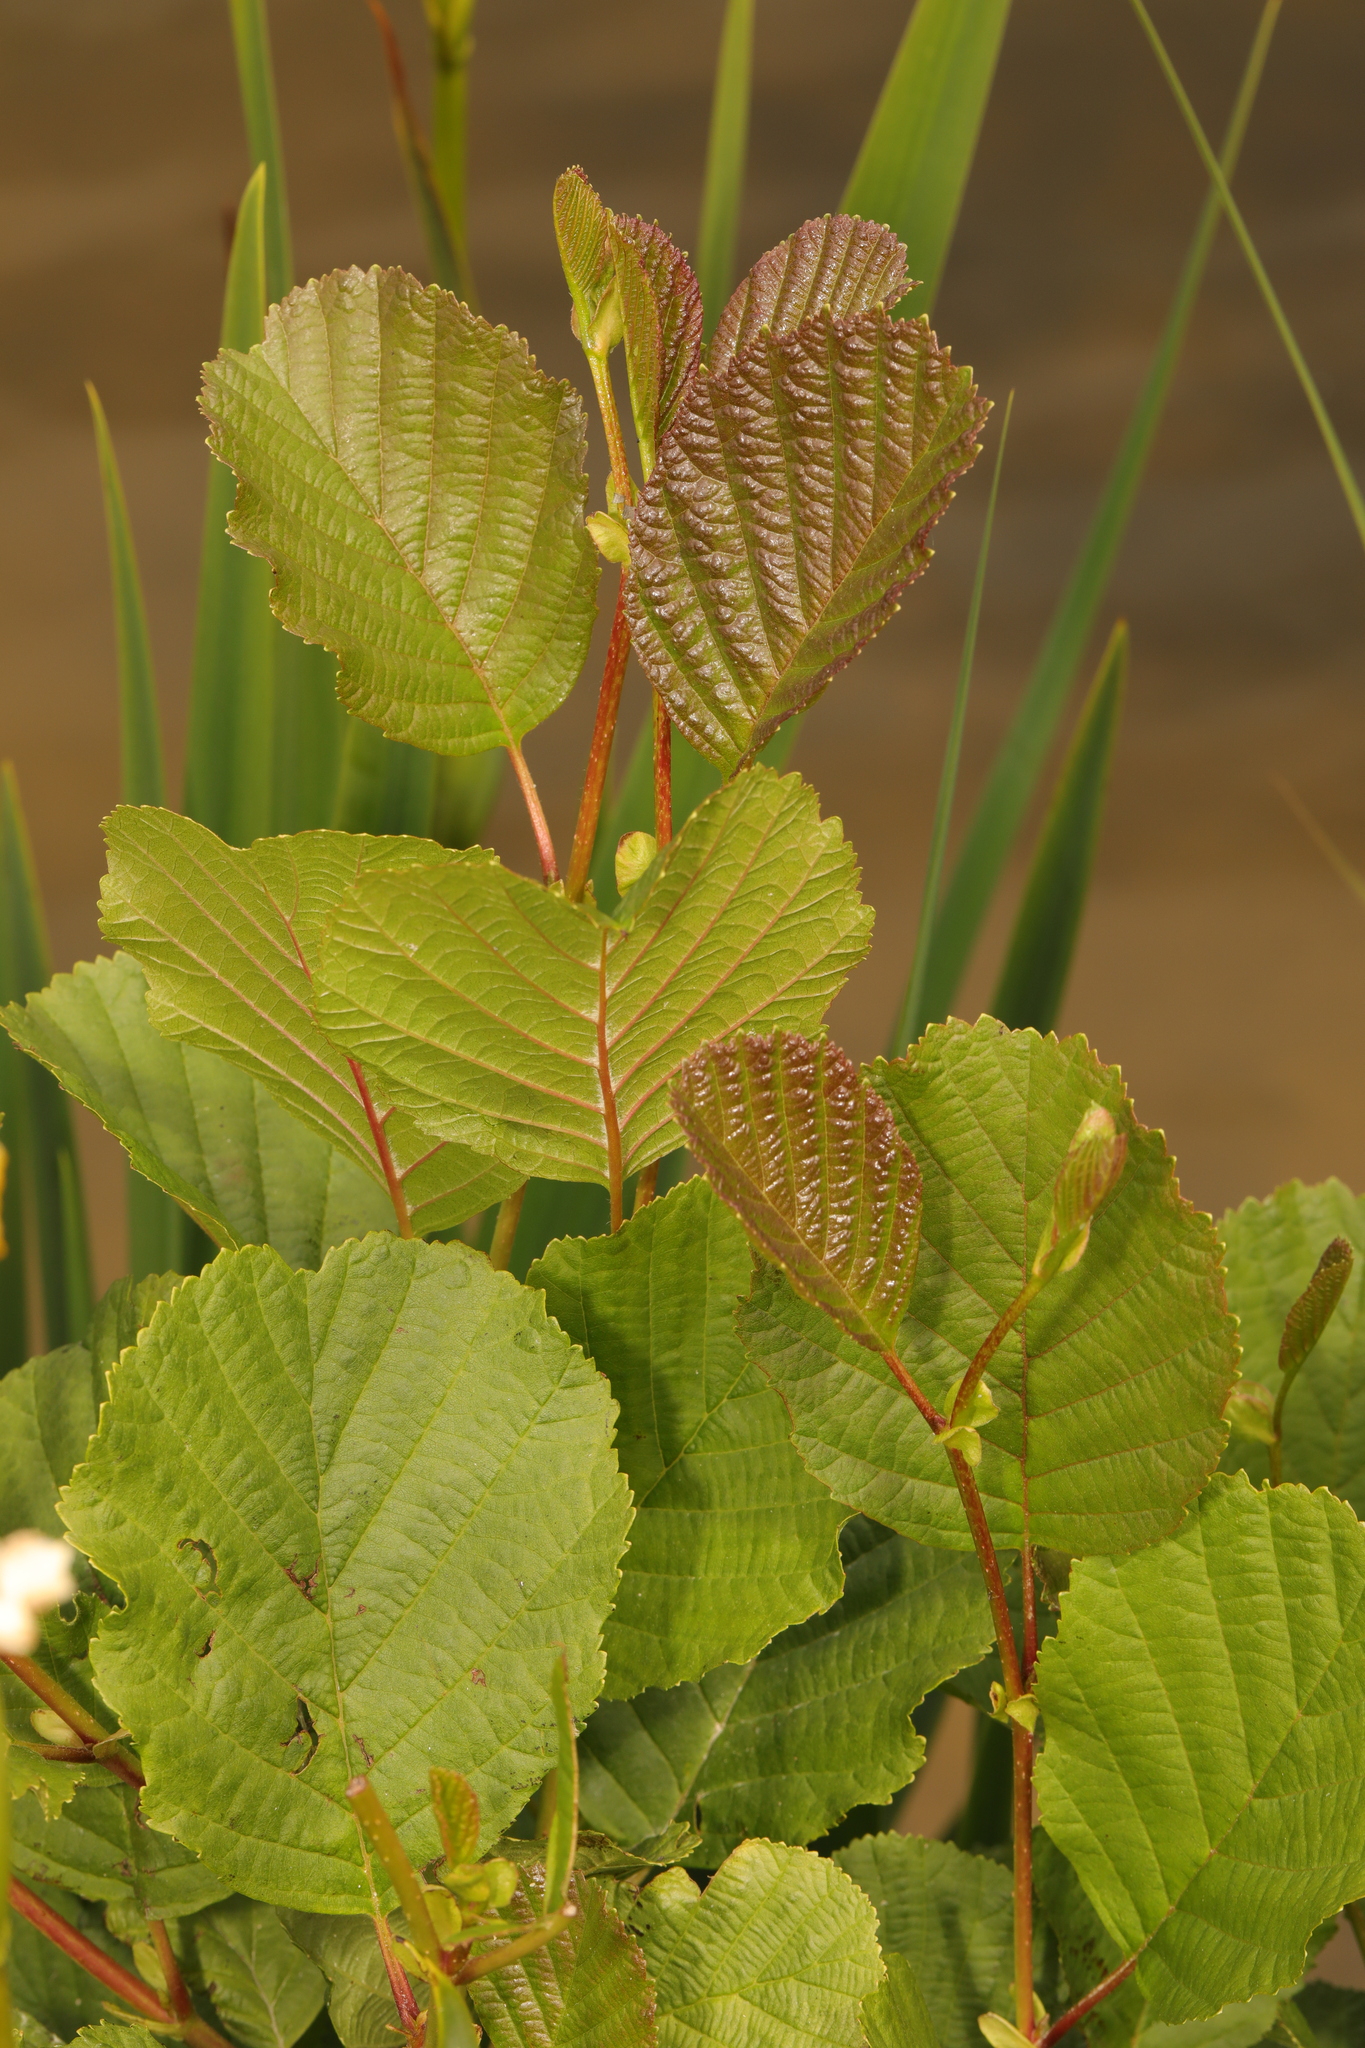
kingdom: Plantae
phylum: Tracheophyta
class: Magnoliopsida
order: Fagales
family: Betulaceae
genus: Alnus
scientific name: Alnus glutinosa
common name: Black alder
